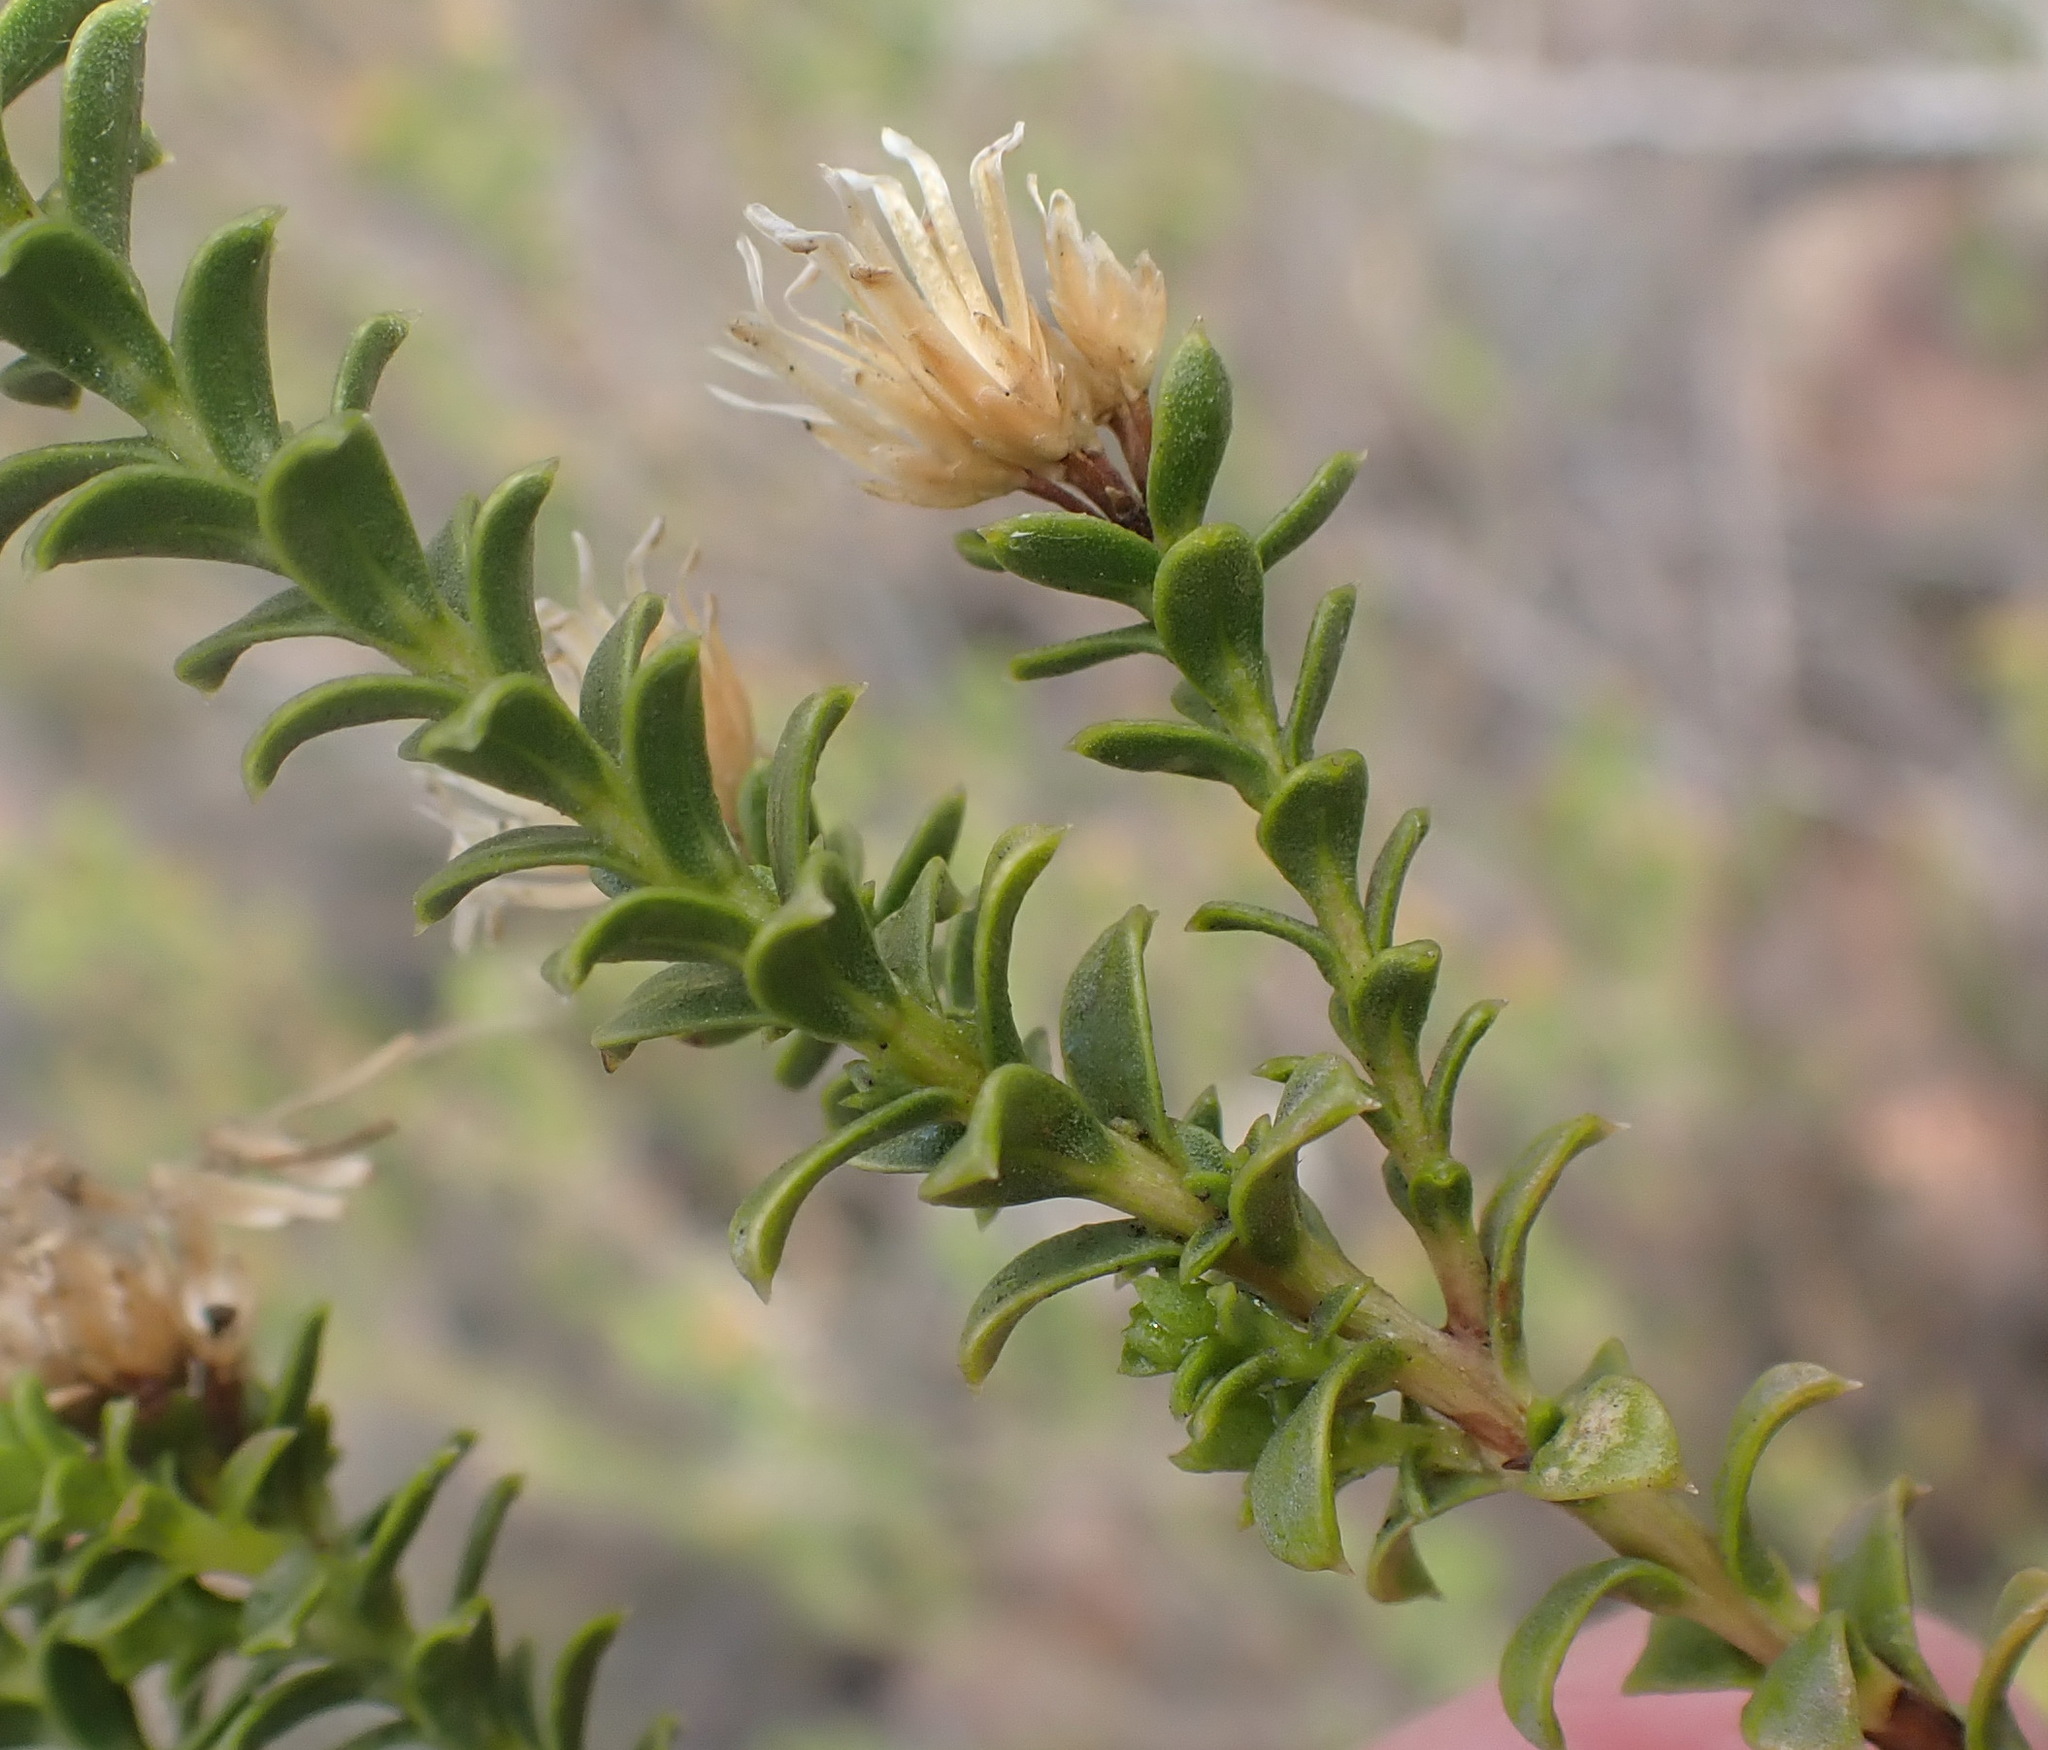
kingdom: Plantae
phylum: Tracheophyta
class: Magnoliopsida
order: Asterales
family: Asteraceae
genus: Oedera
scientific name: Oedera squarrosa
